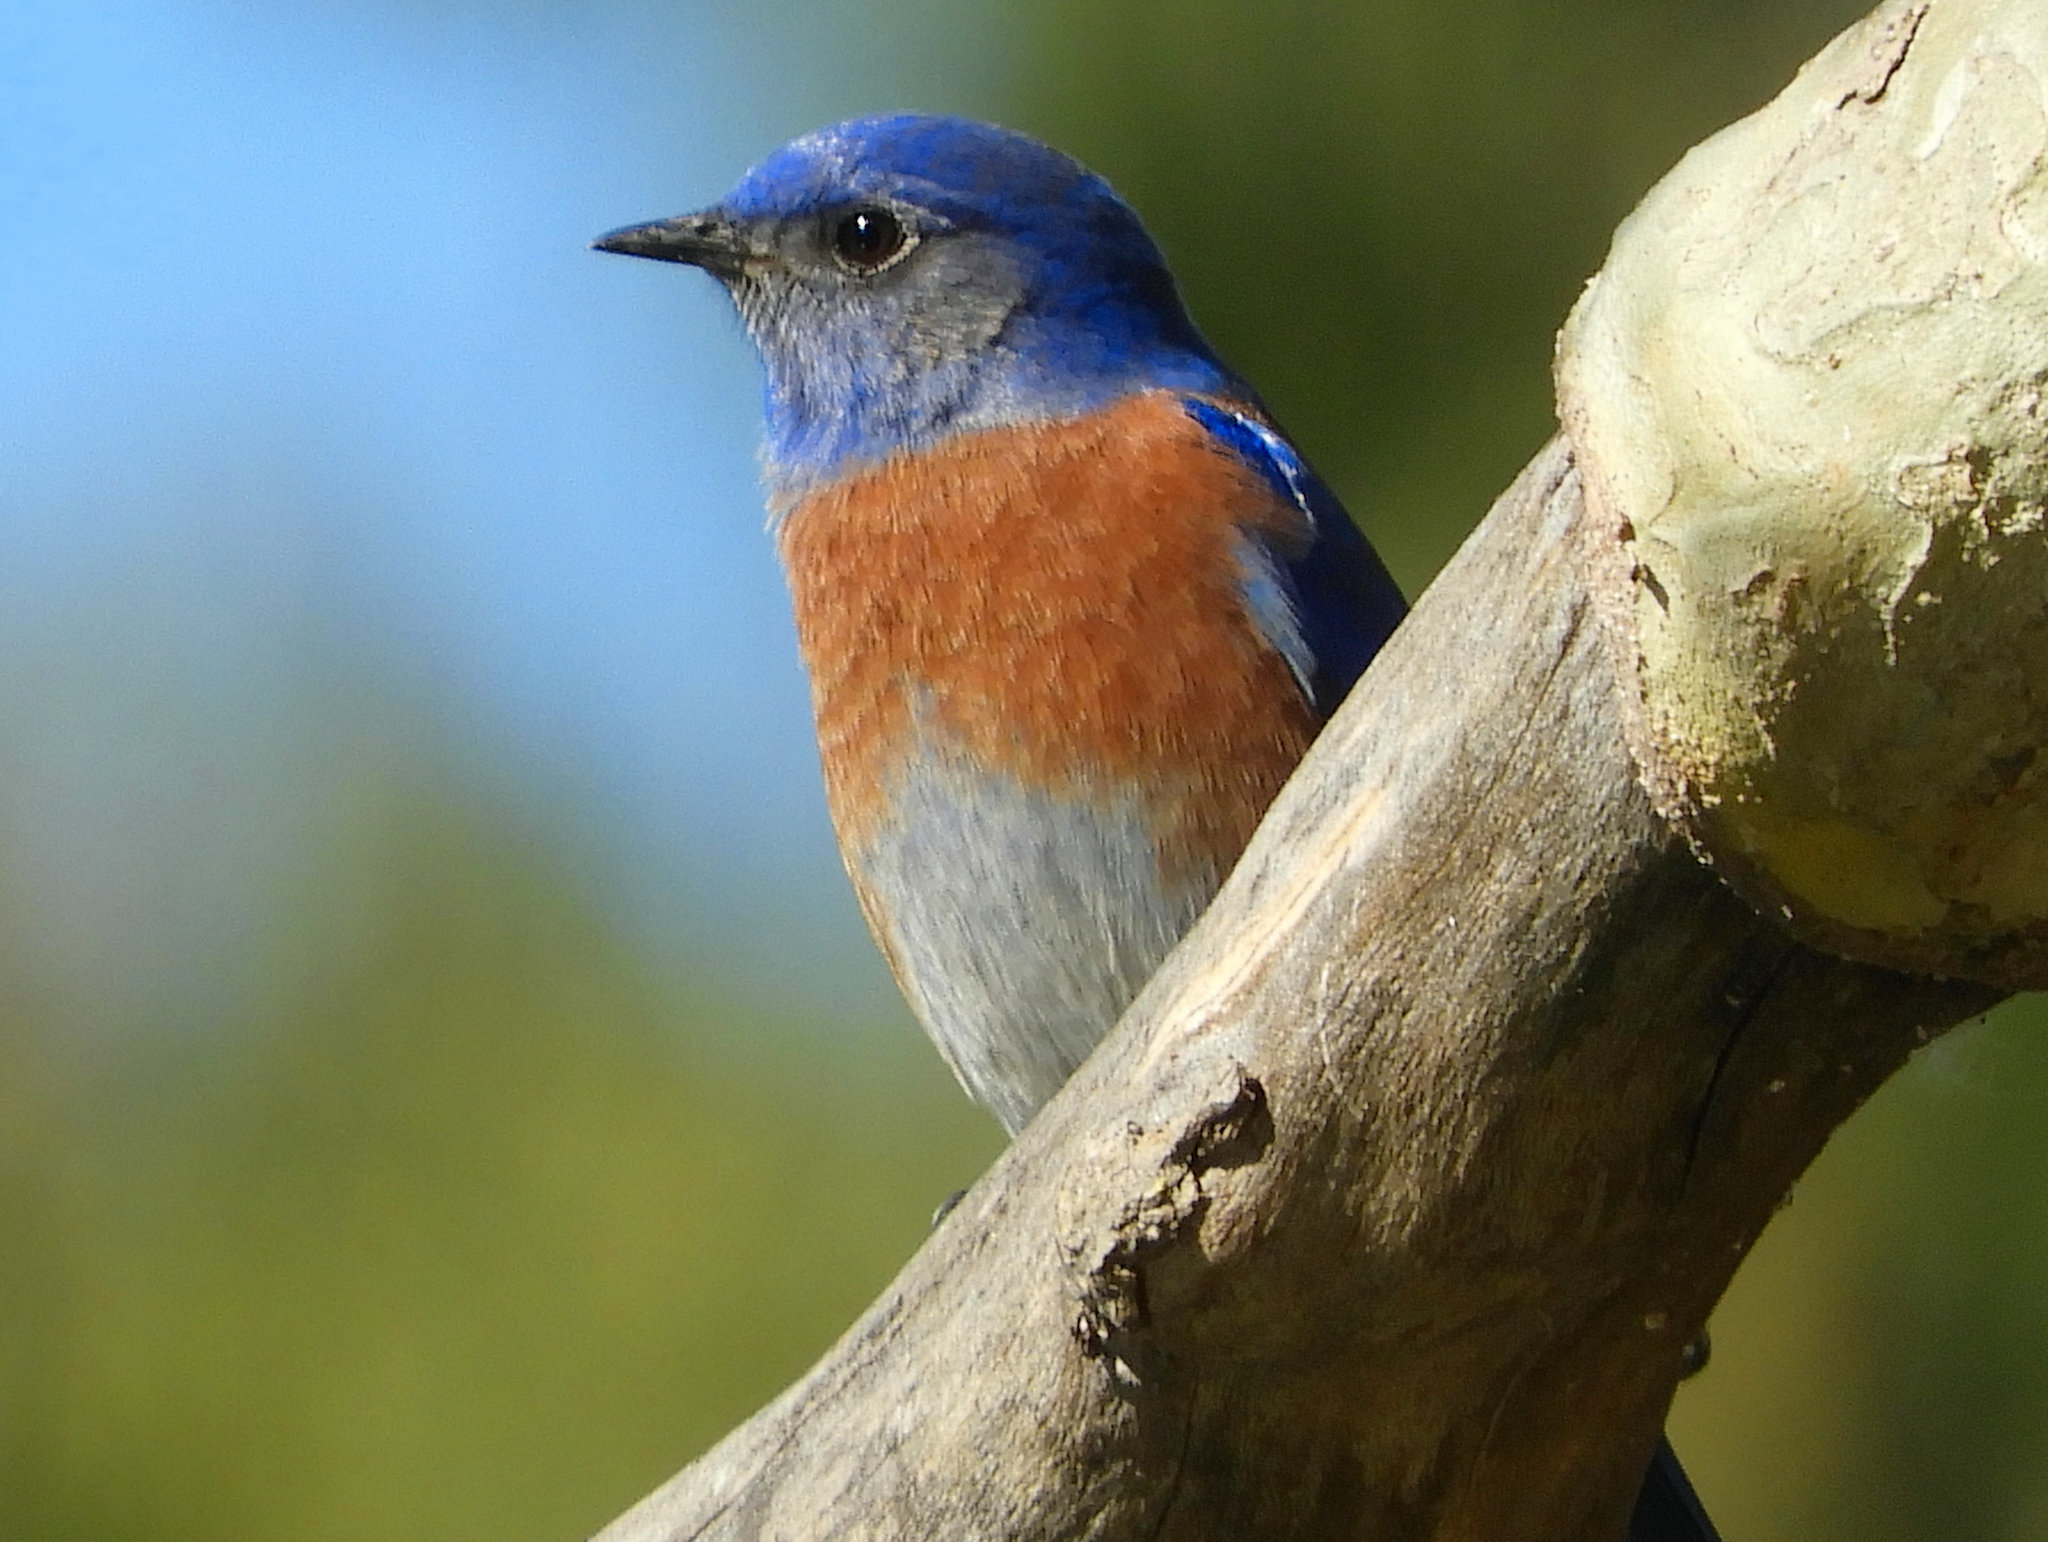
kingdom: Animalia
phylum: Chordata
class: Aves
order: Passeriformes
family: Turdidae
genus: Sialia
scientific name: Sialia mexicana
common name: Western bluebird
